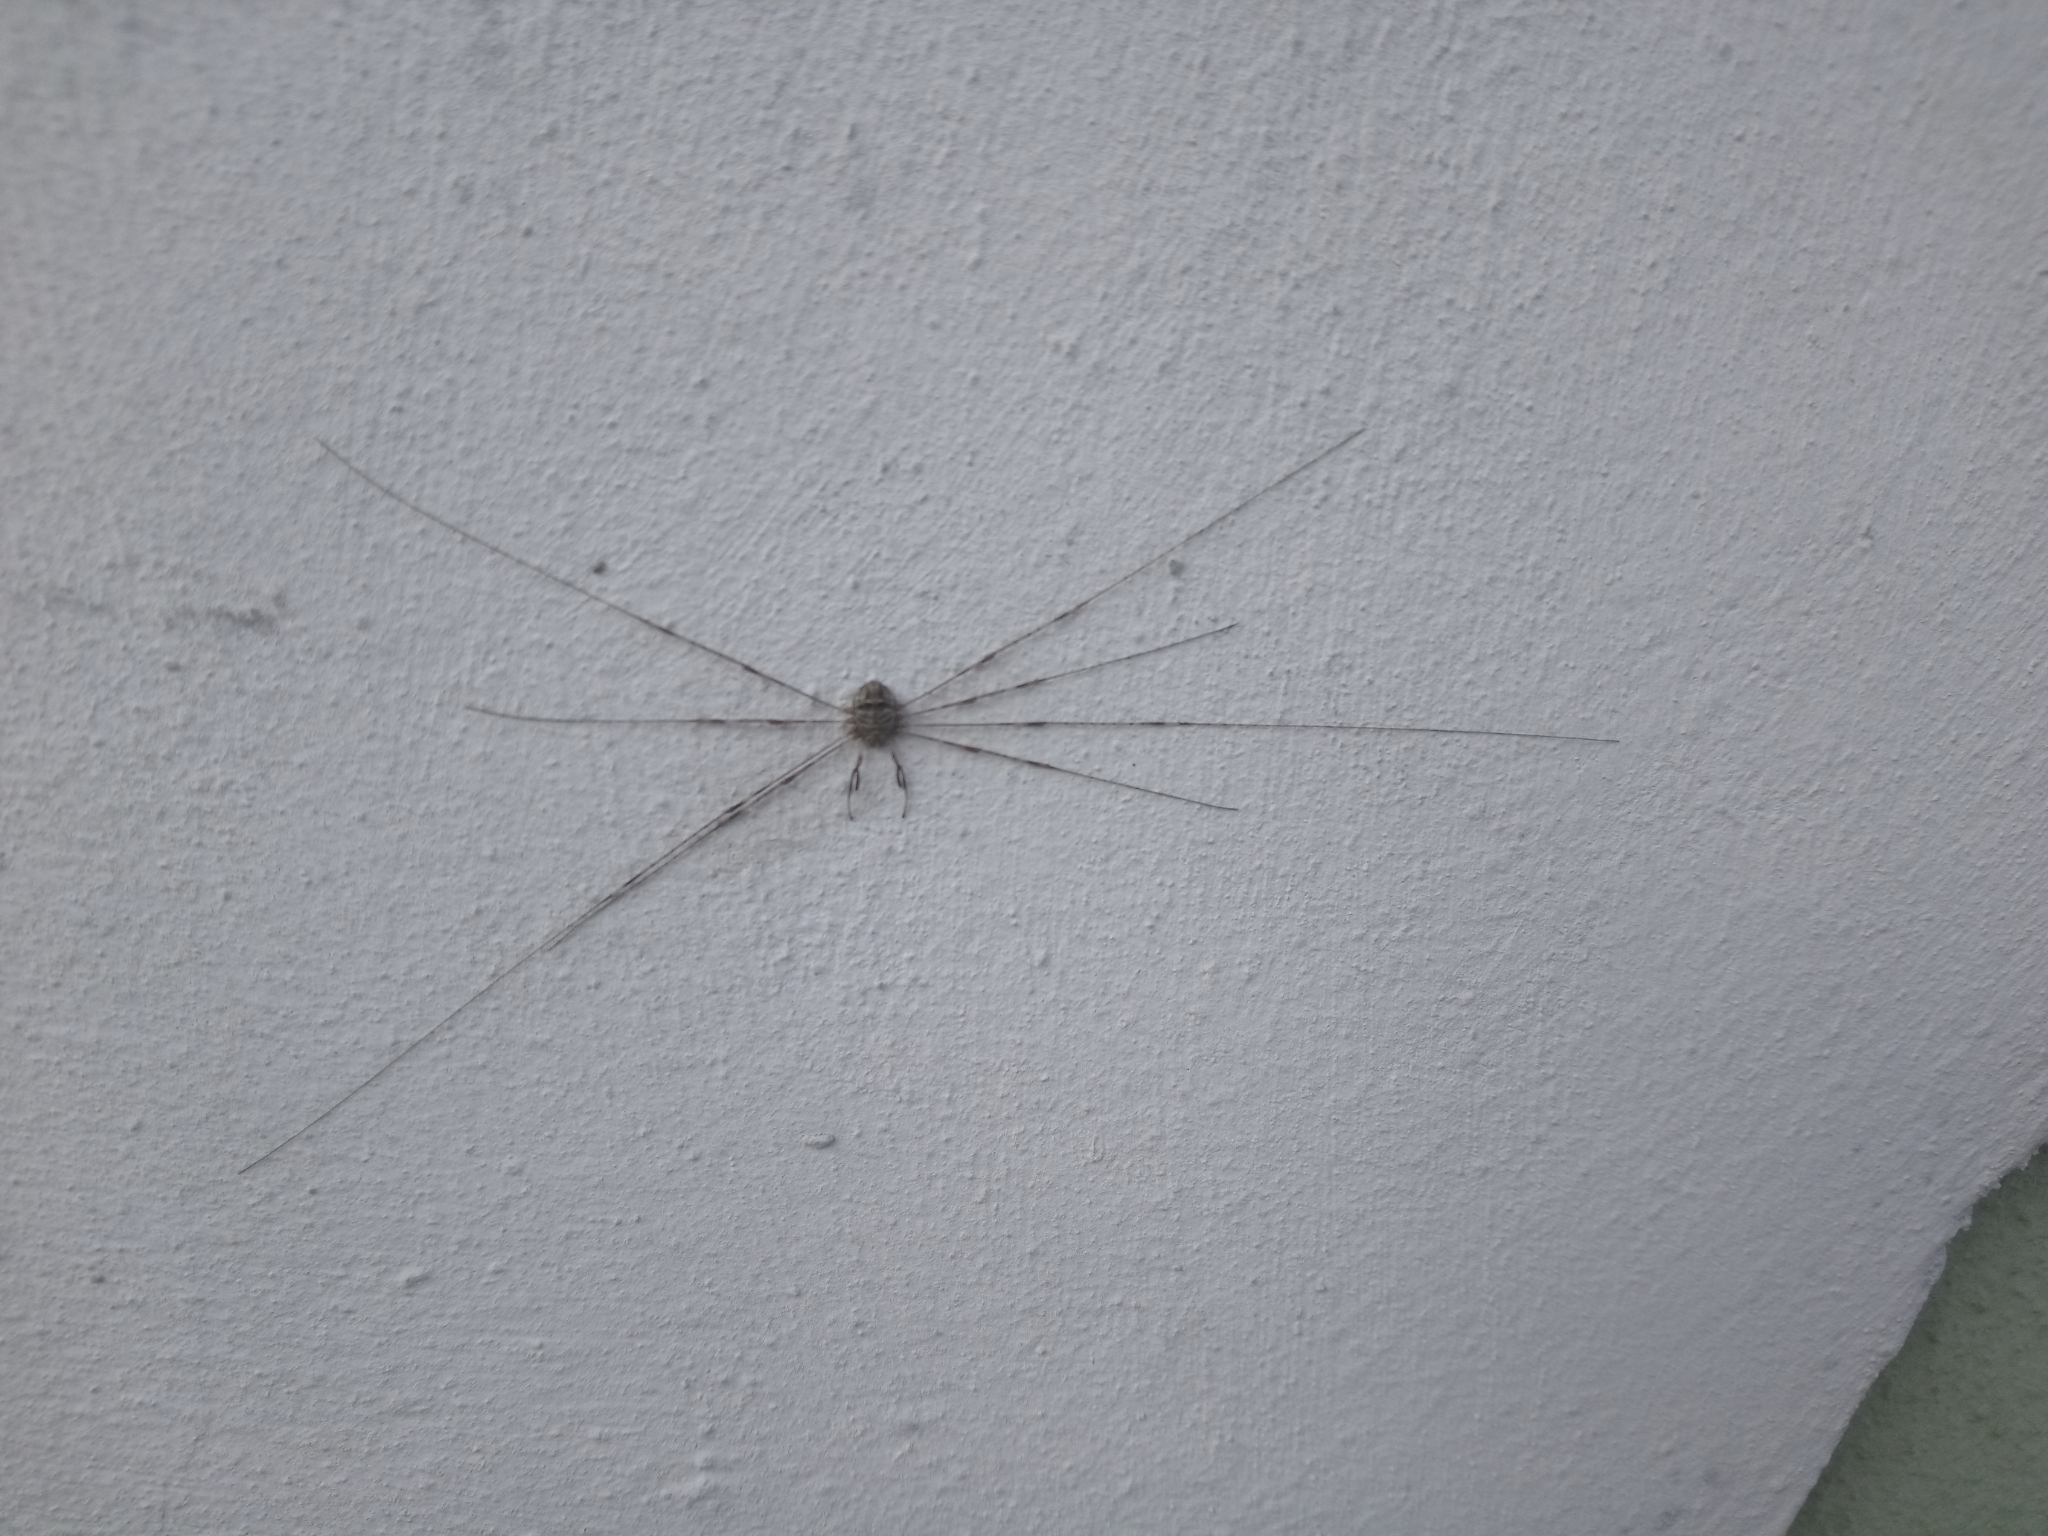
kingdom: Animalia
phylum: Arthropoda
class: Arachnida
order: Opiliones
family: Phalangiidae
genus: Dicranopalpus
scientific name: Dicranopalpus ramosus
